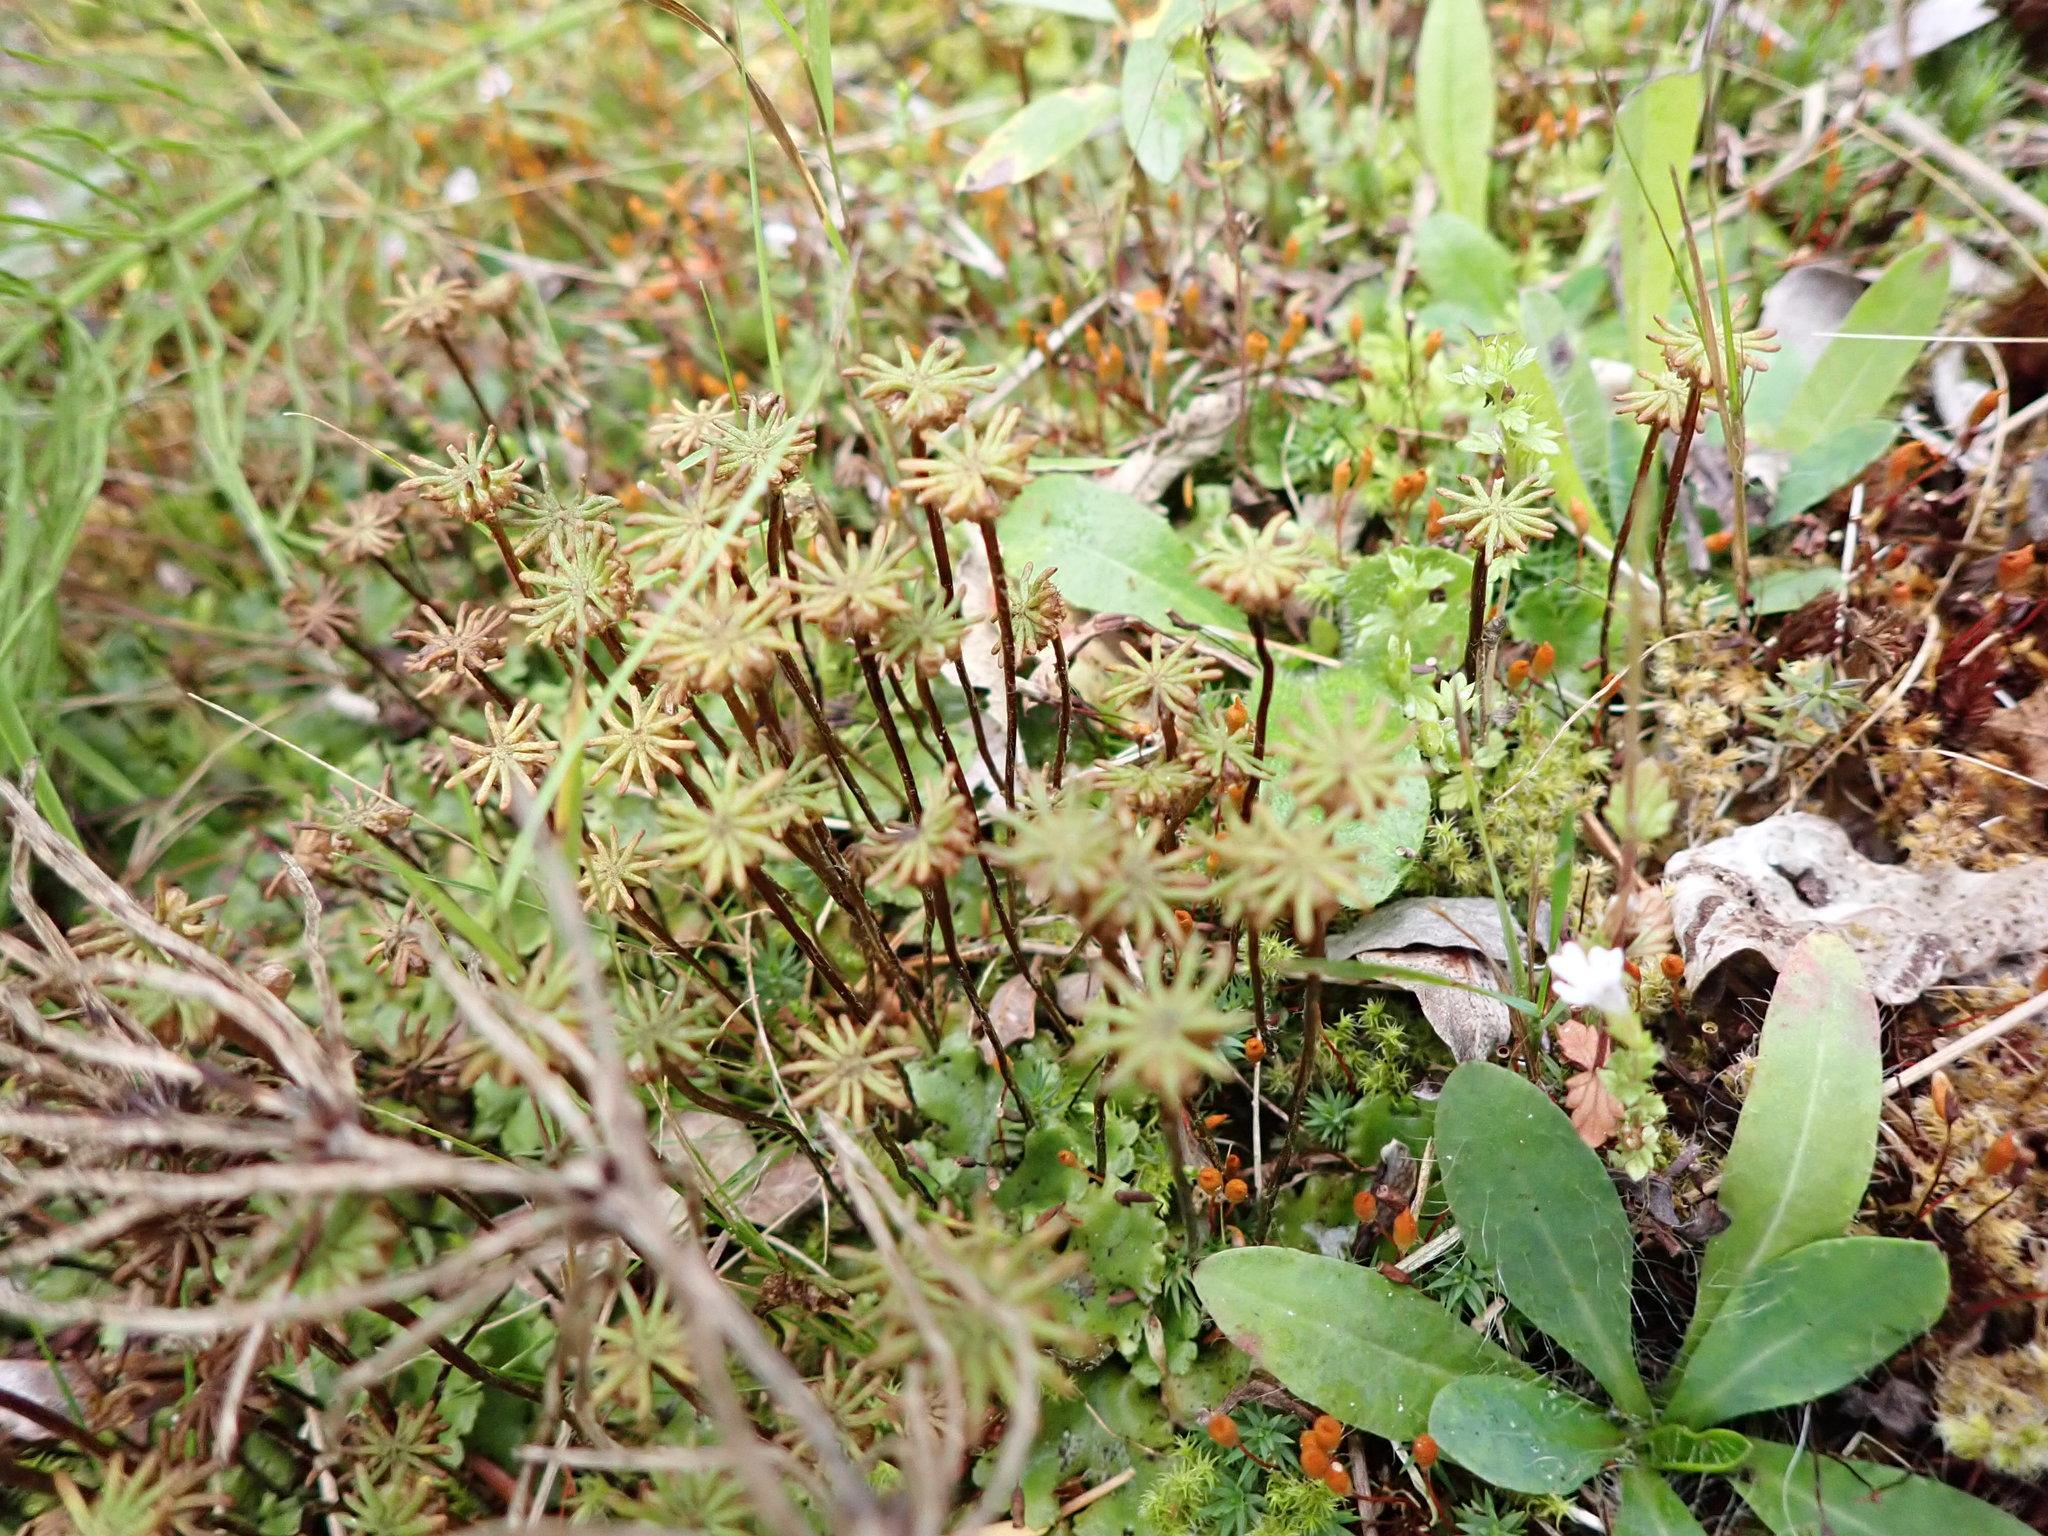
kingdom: Plantae
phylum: Marchantiophyta
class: Marchantiopsida
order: Marchantiales
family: Marchantiaceae
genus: Marchantia
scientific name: Marchantia polymorpha
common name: Common liverwort
